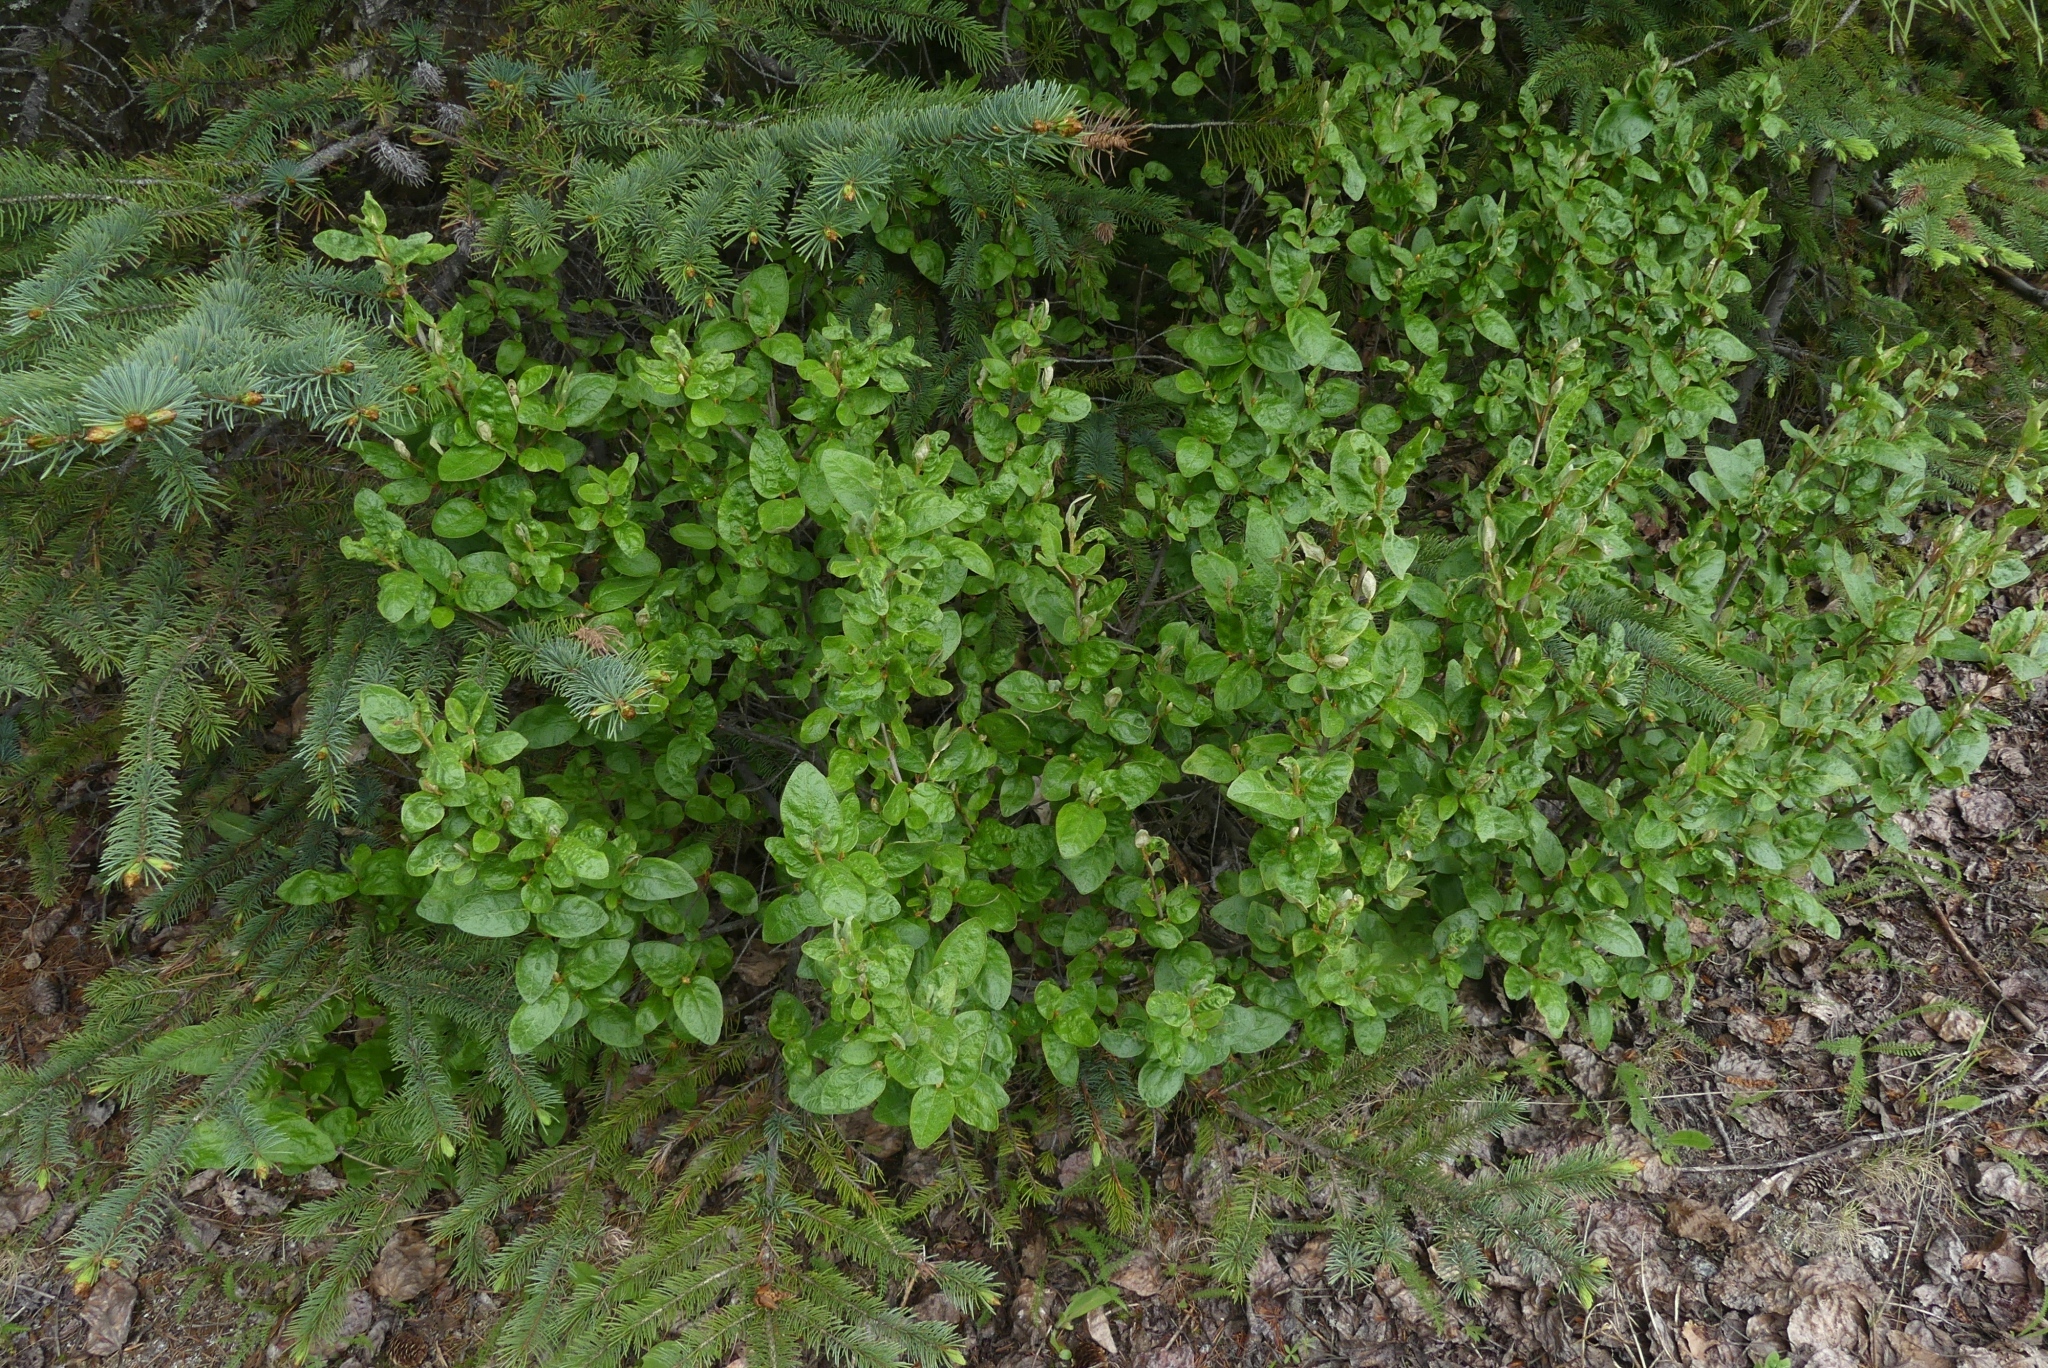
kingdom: Plantae
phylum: Tracheophyta
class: Magnoliopsida
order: Rosales
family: Elaeagnaceae
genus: Shepherdia
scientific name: Shepherdia canadensis
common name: Soapberry
